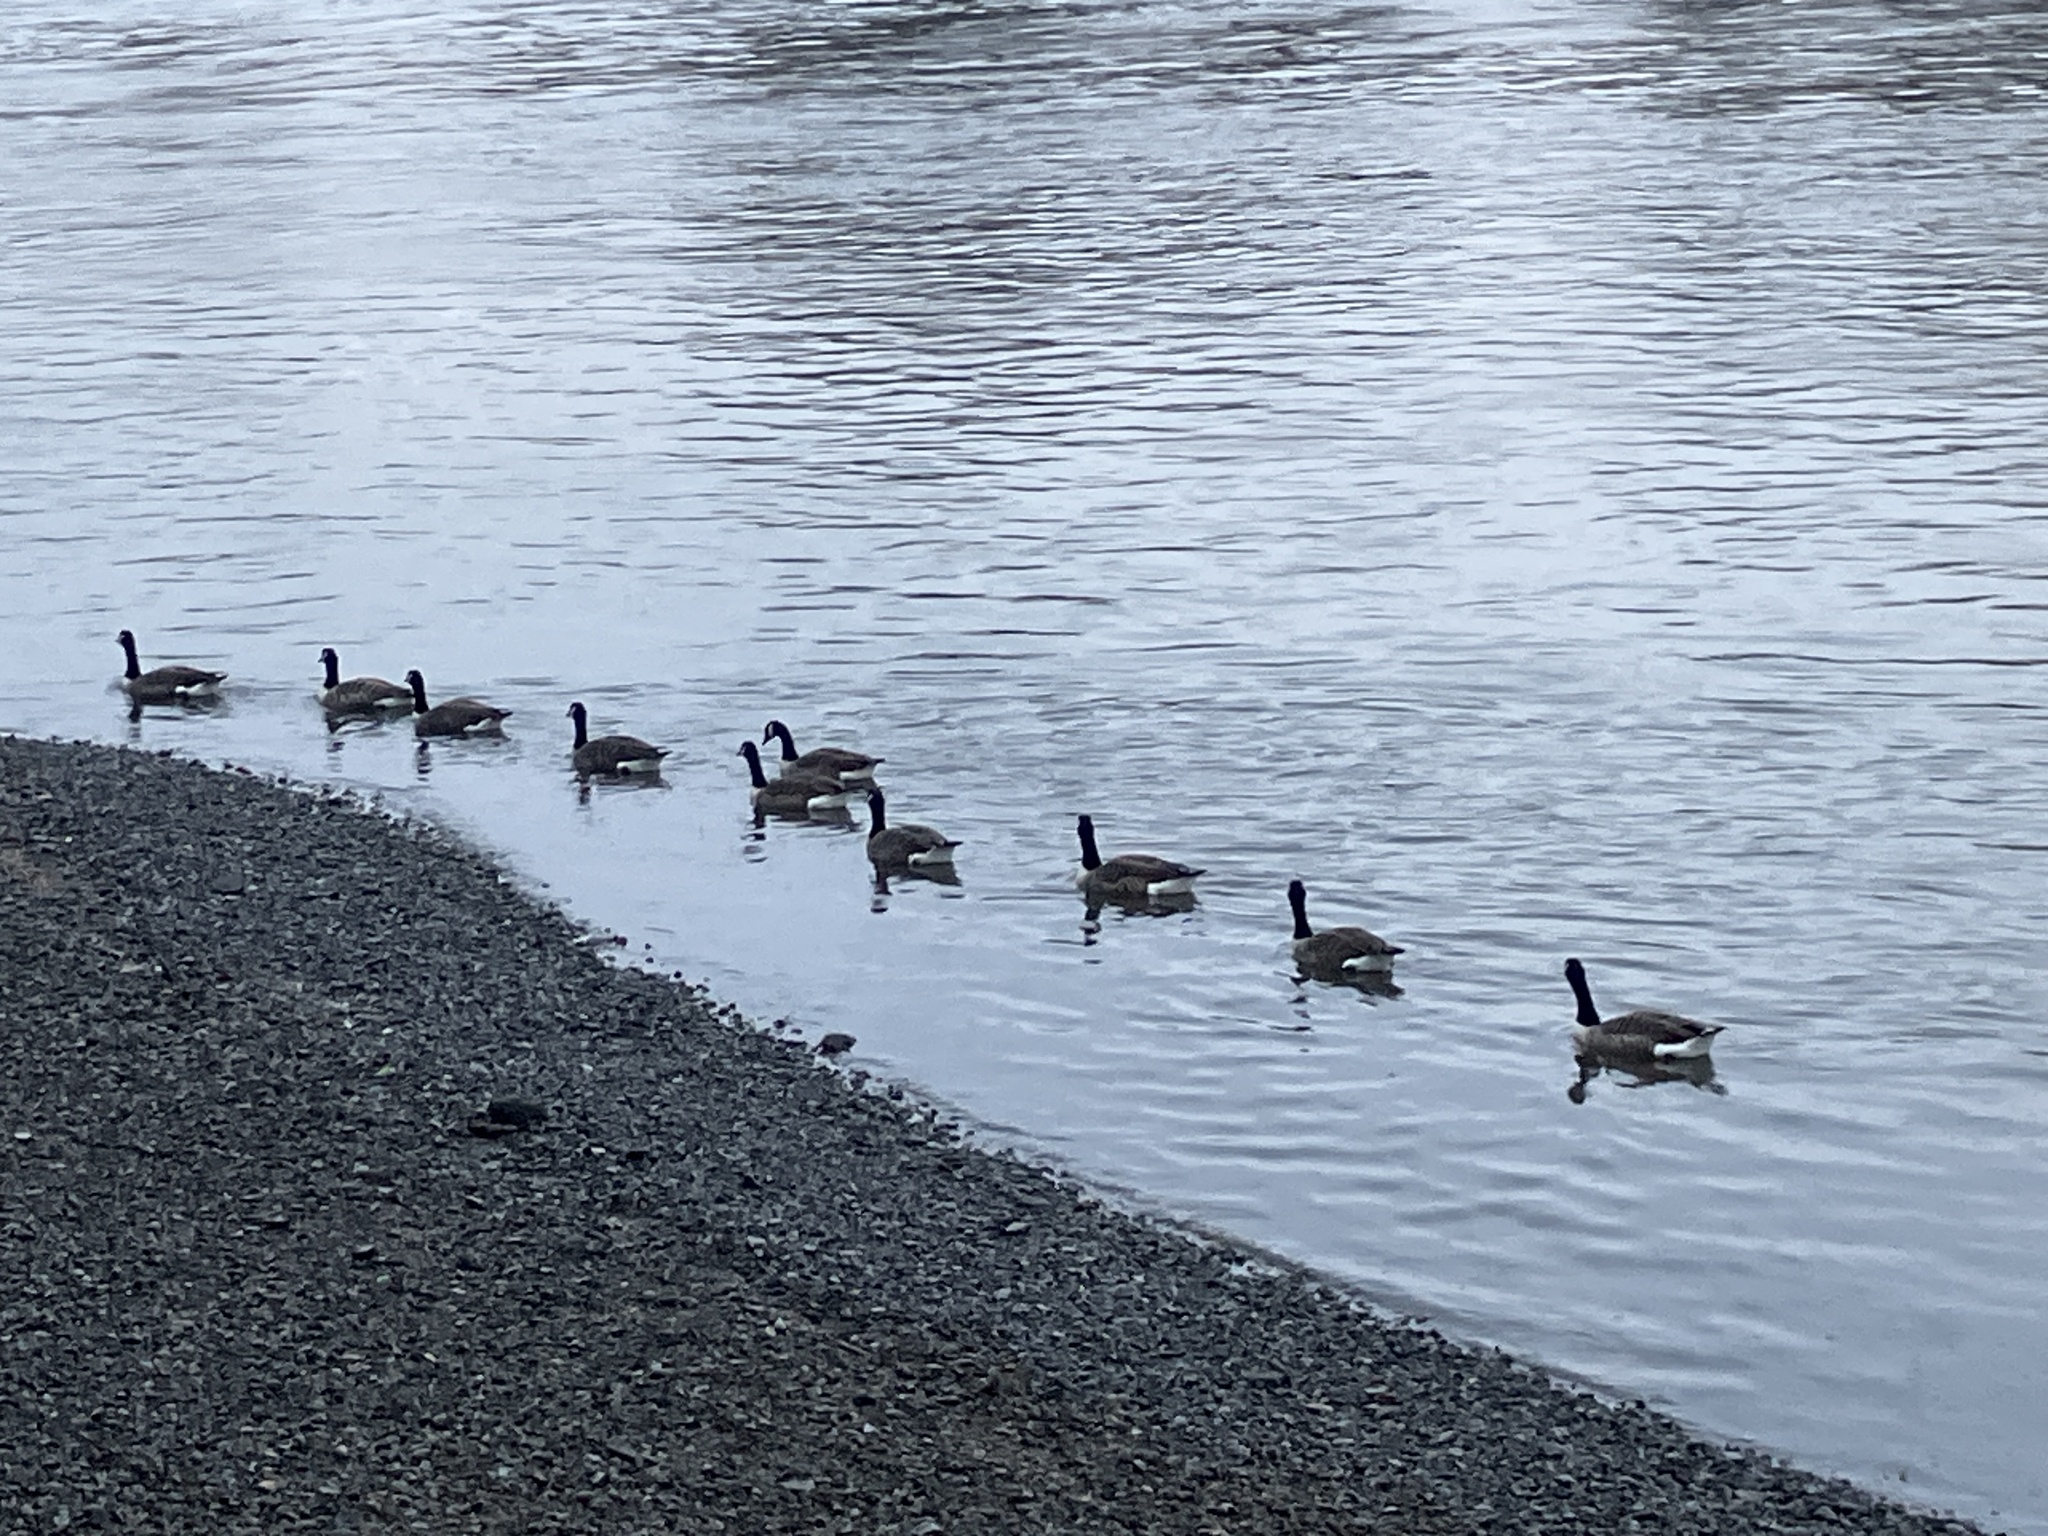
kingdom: Animalia
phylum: Chordata
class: Aves
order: Anseriformes
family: Anatidae
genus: Branta
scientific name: Branta canadensis
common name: Canada goose
